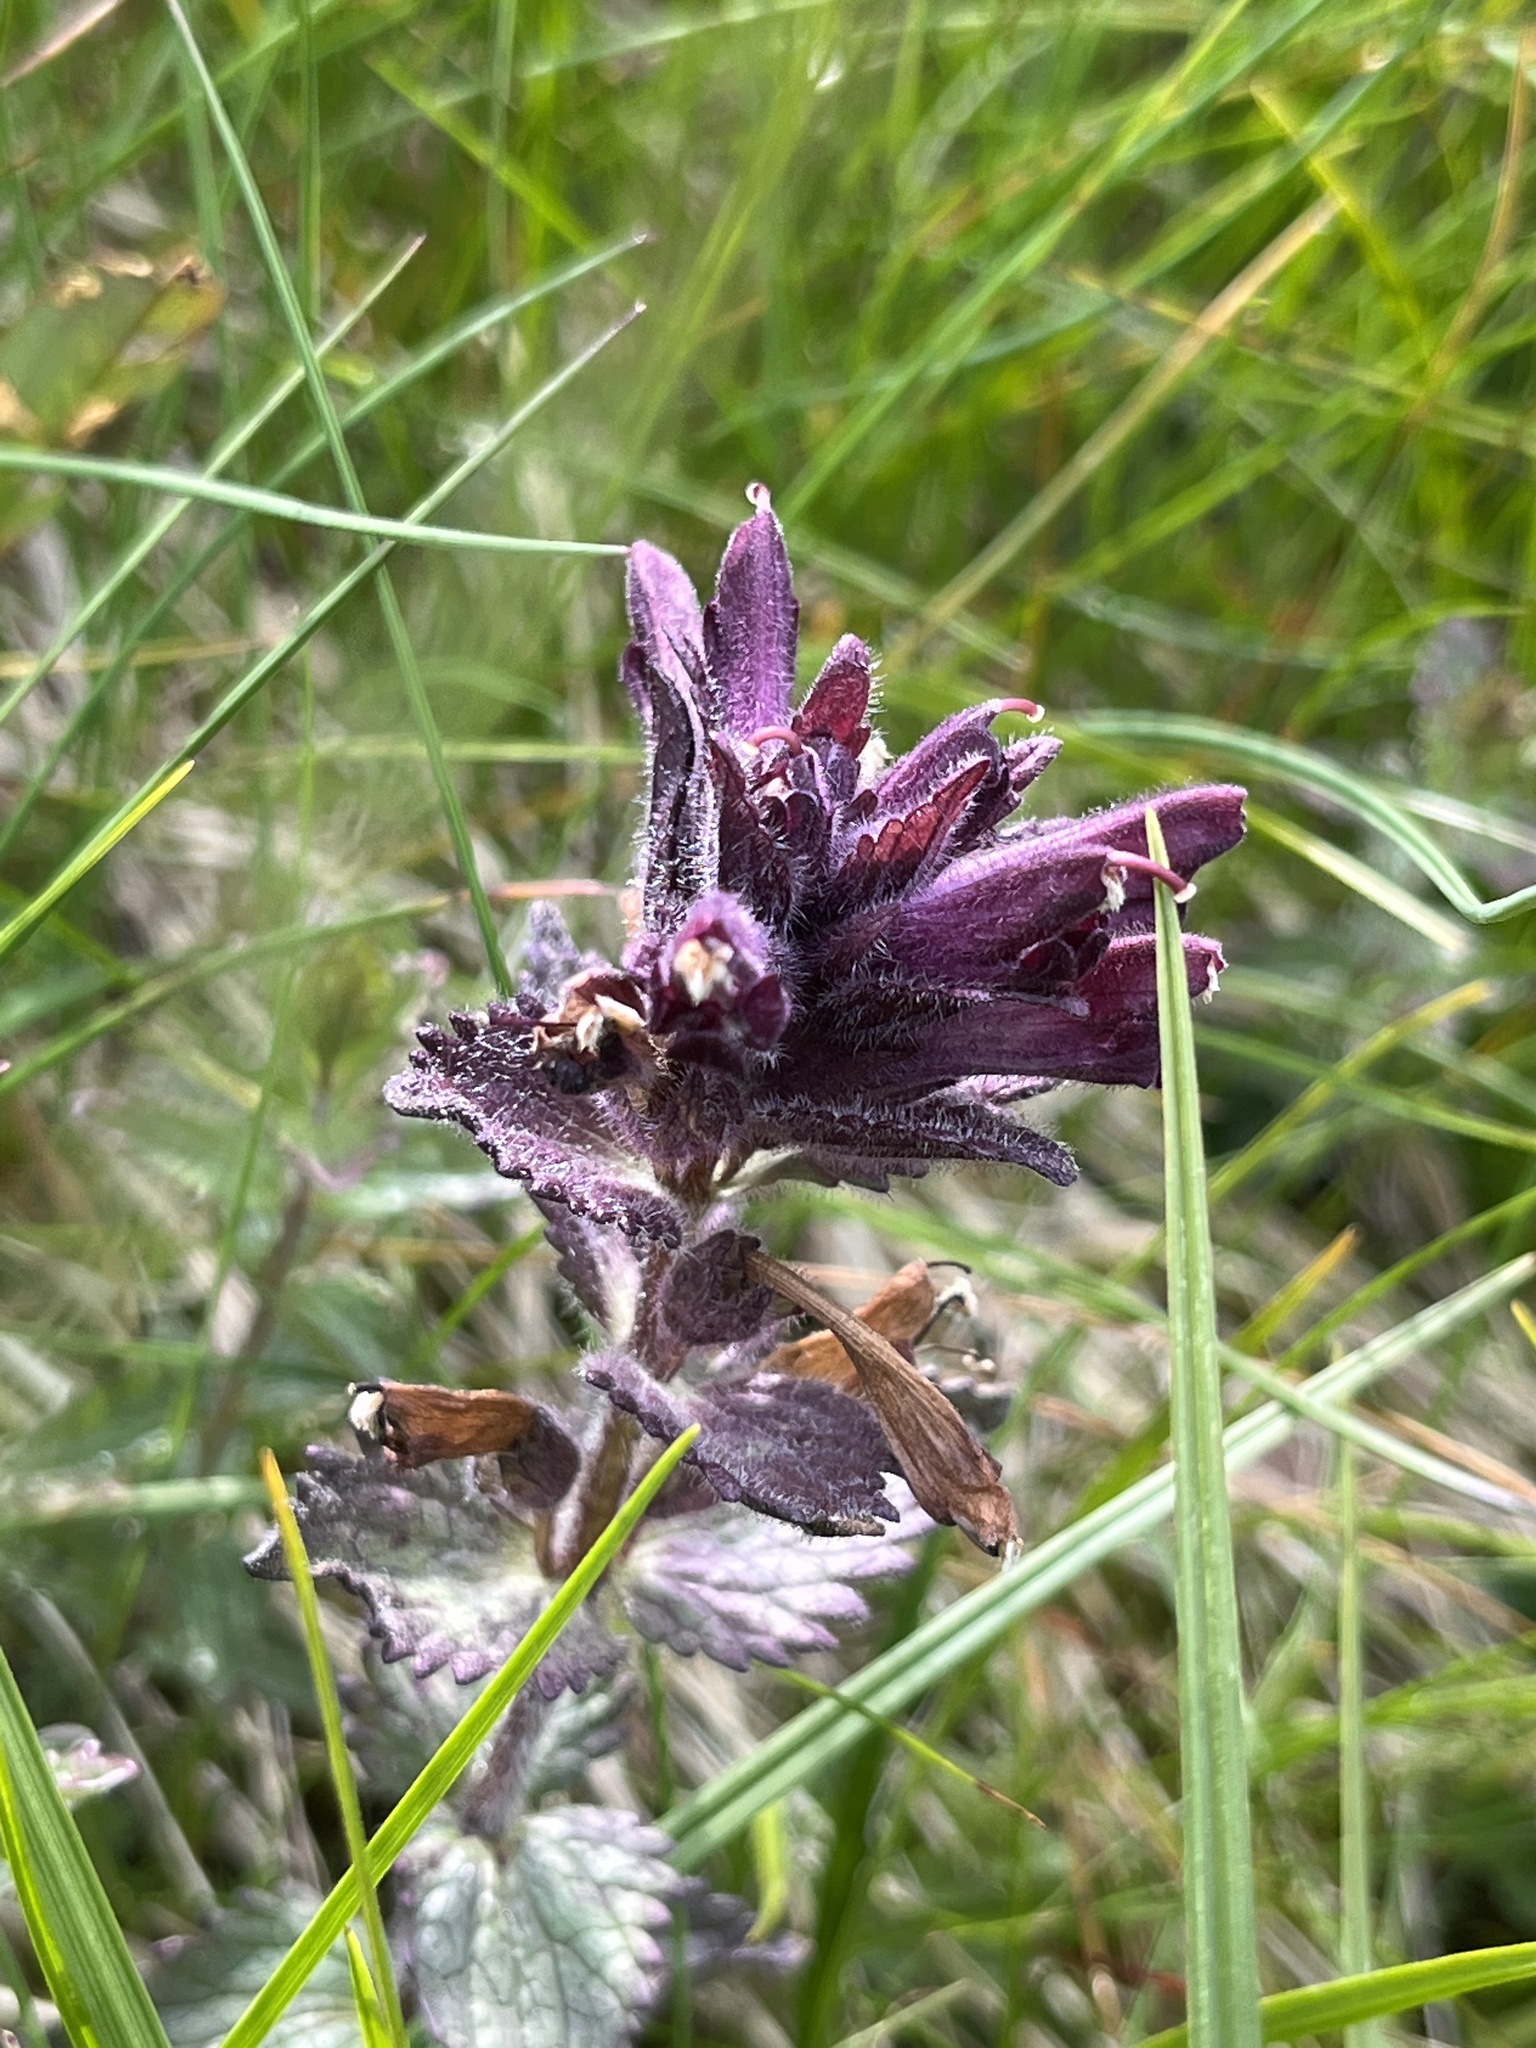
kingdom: Plantae
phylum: Tracheophyta
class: Magnoliopsida
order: Lamiales
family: Orobanchaceae
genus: Bartsia
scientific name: Bartsia alpina
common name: Alpine bartsia
